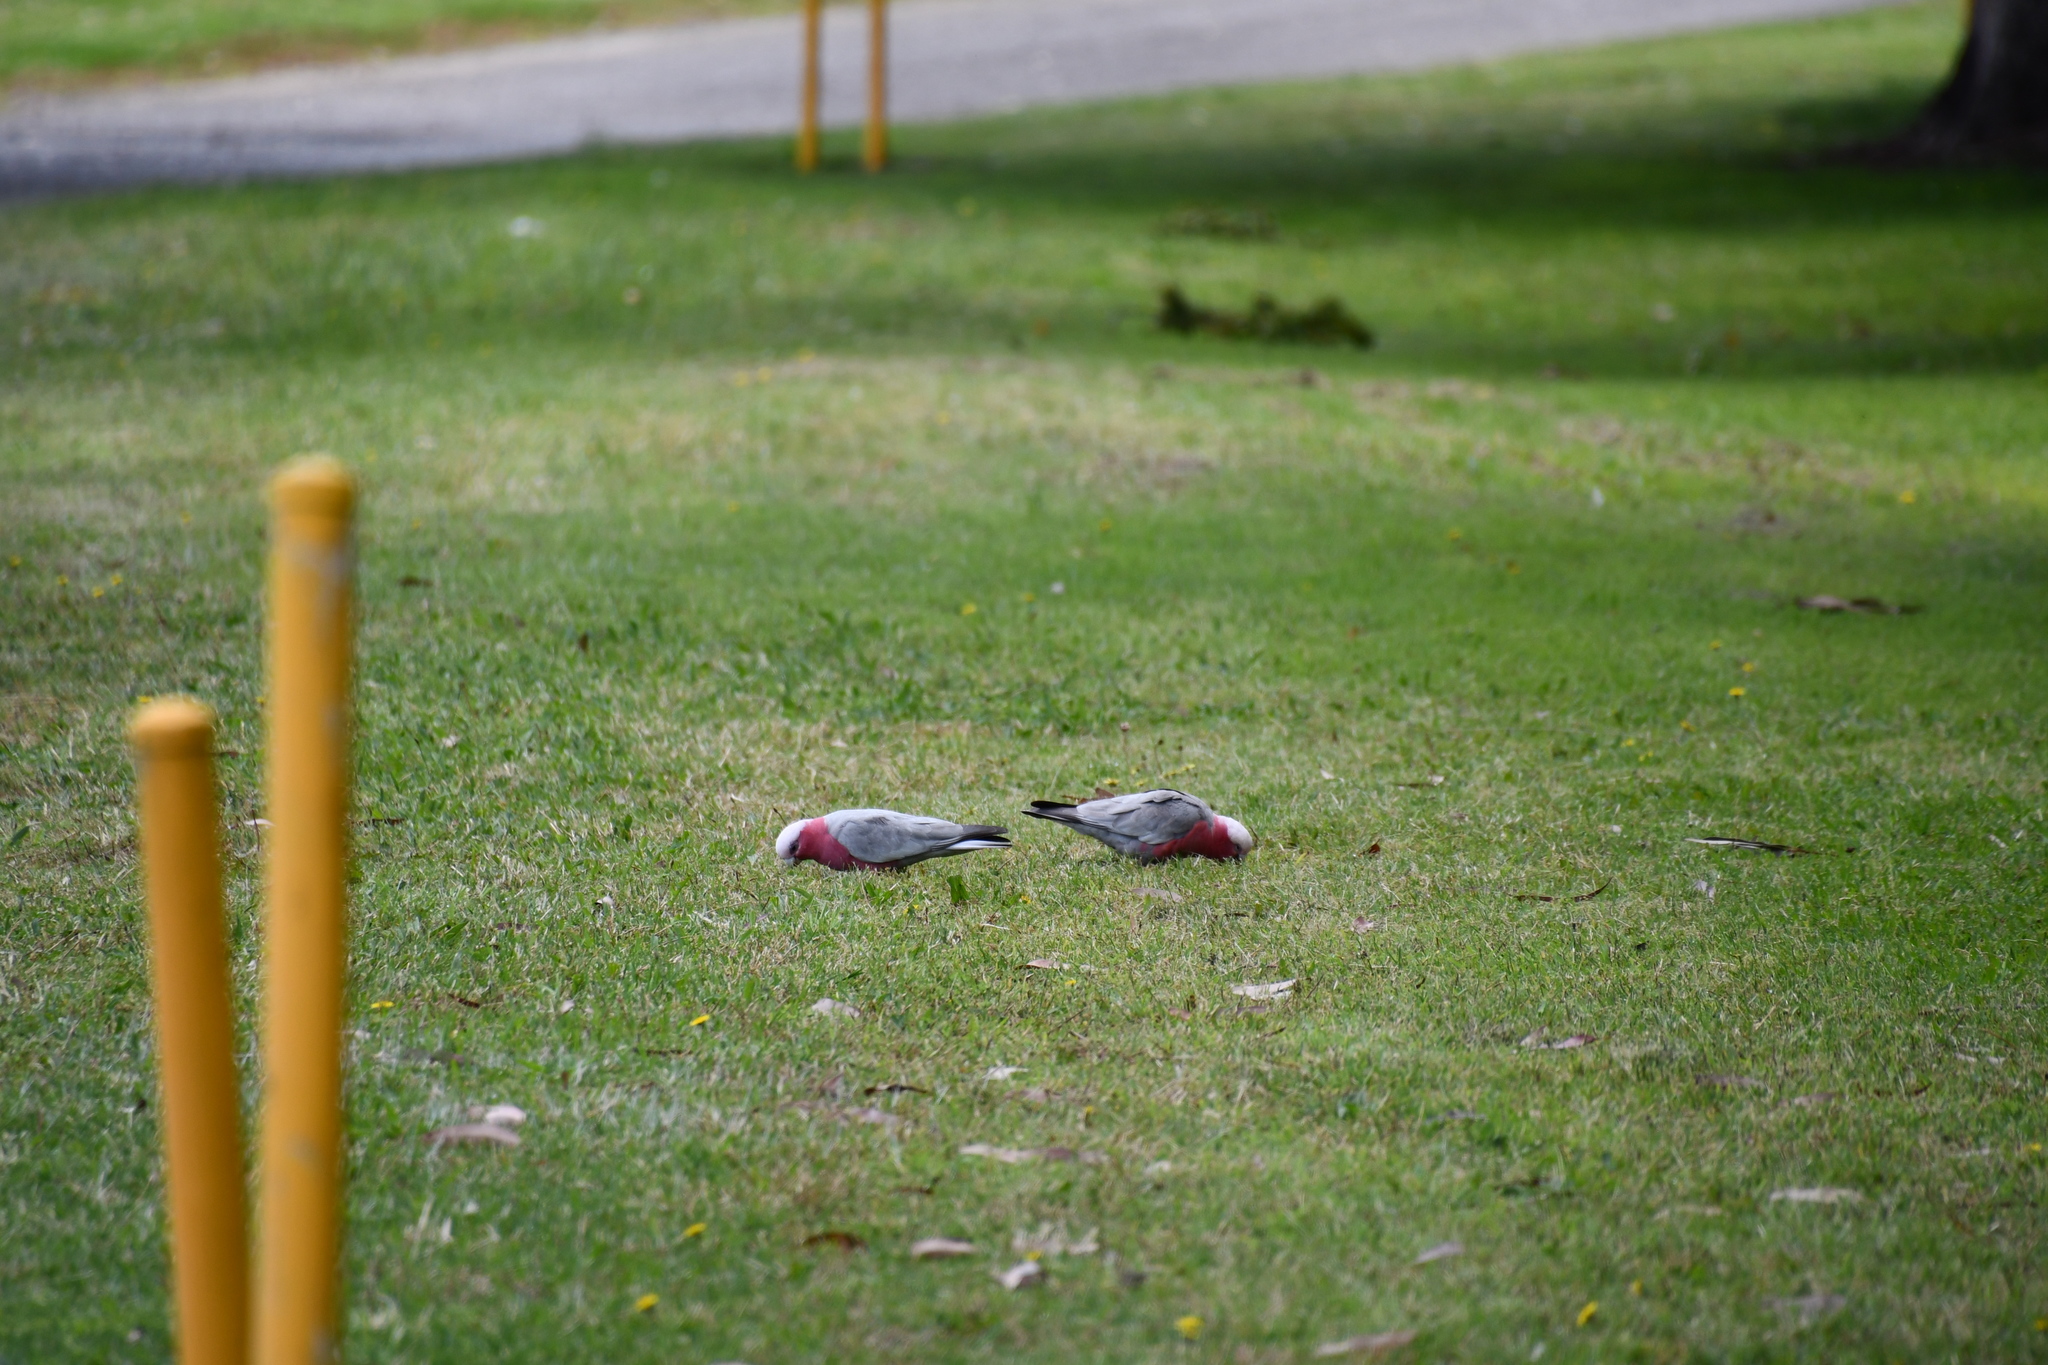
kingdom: Animalia
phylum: Chordata
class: Aves
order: Psittaciformes
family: Psittacidae
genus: Eolophus
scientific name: Eolophus roseicapilla
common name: Galah
